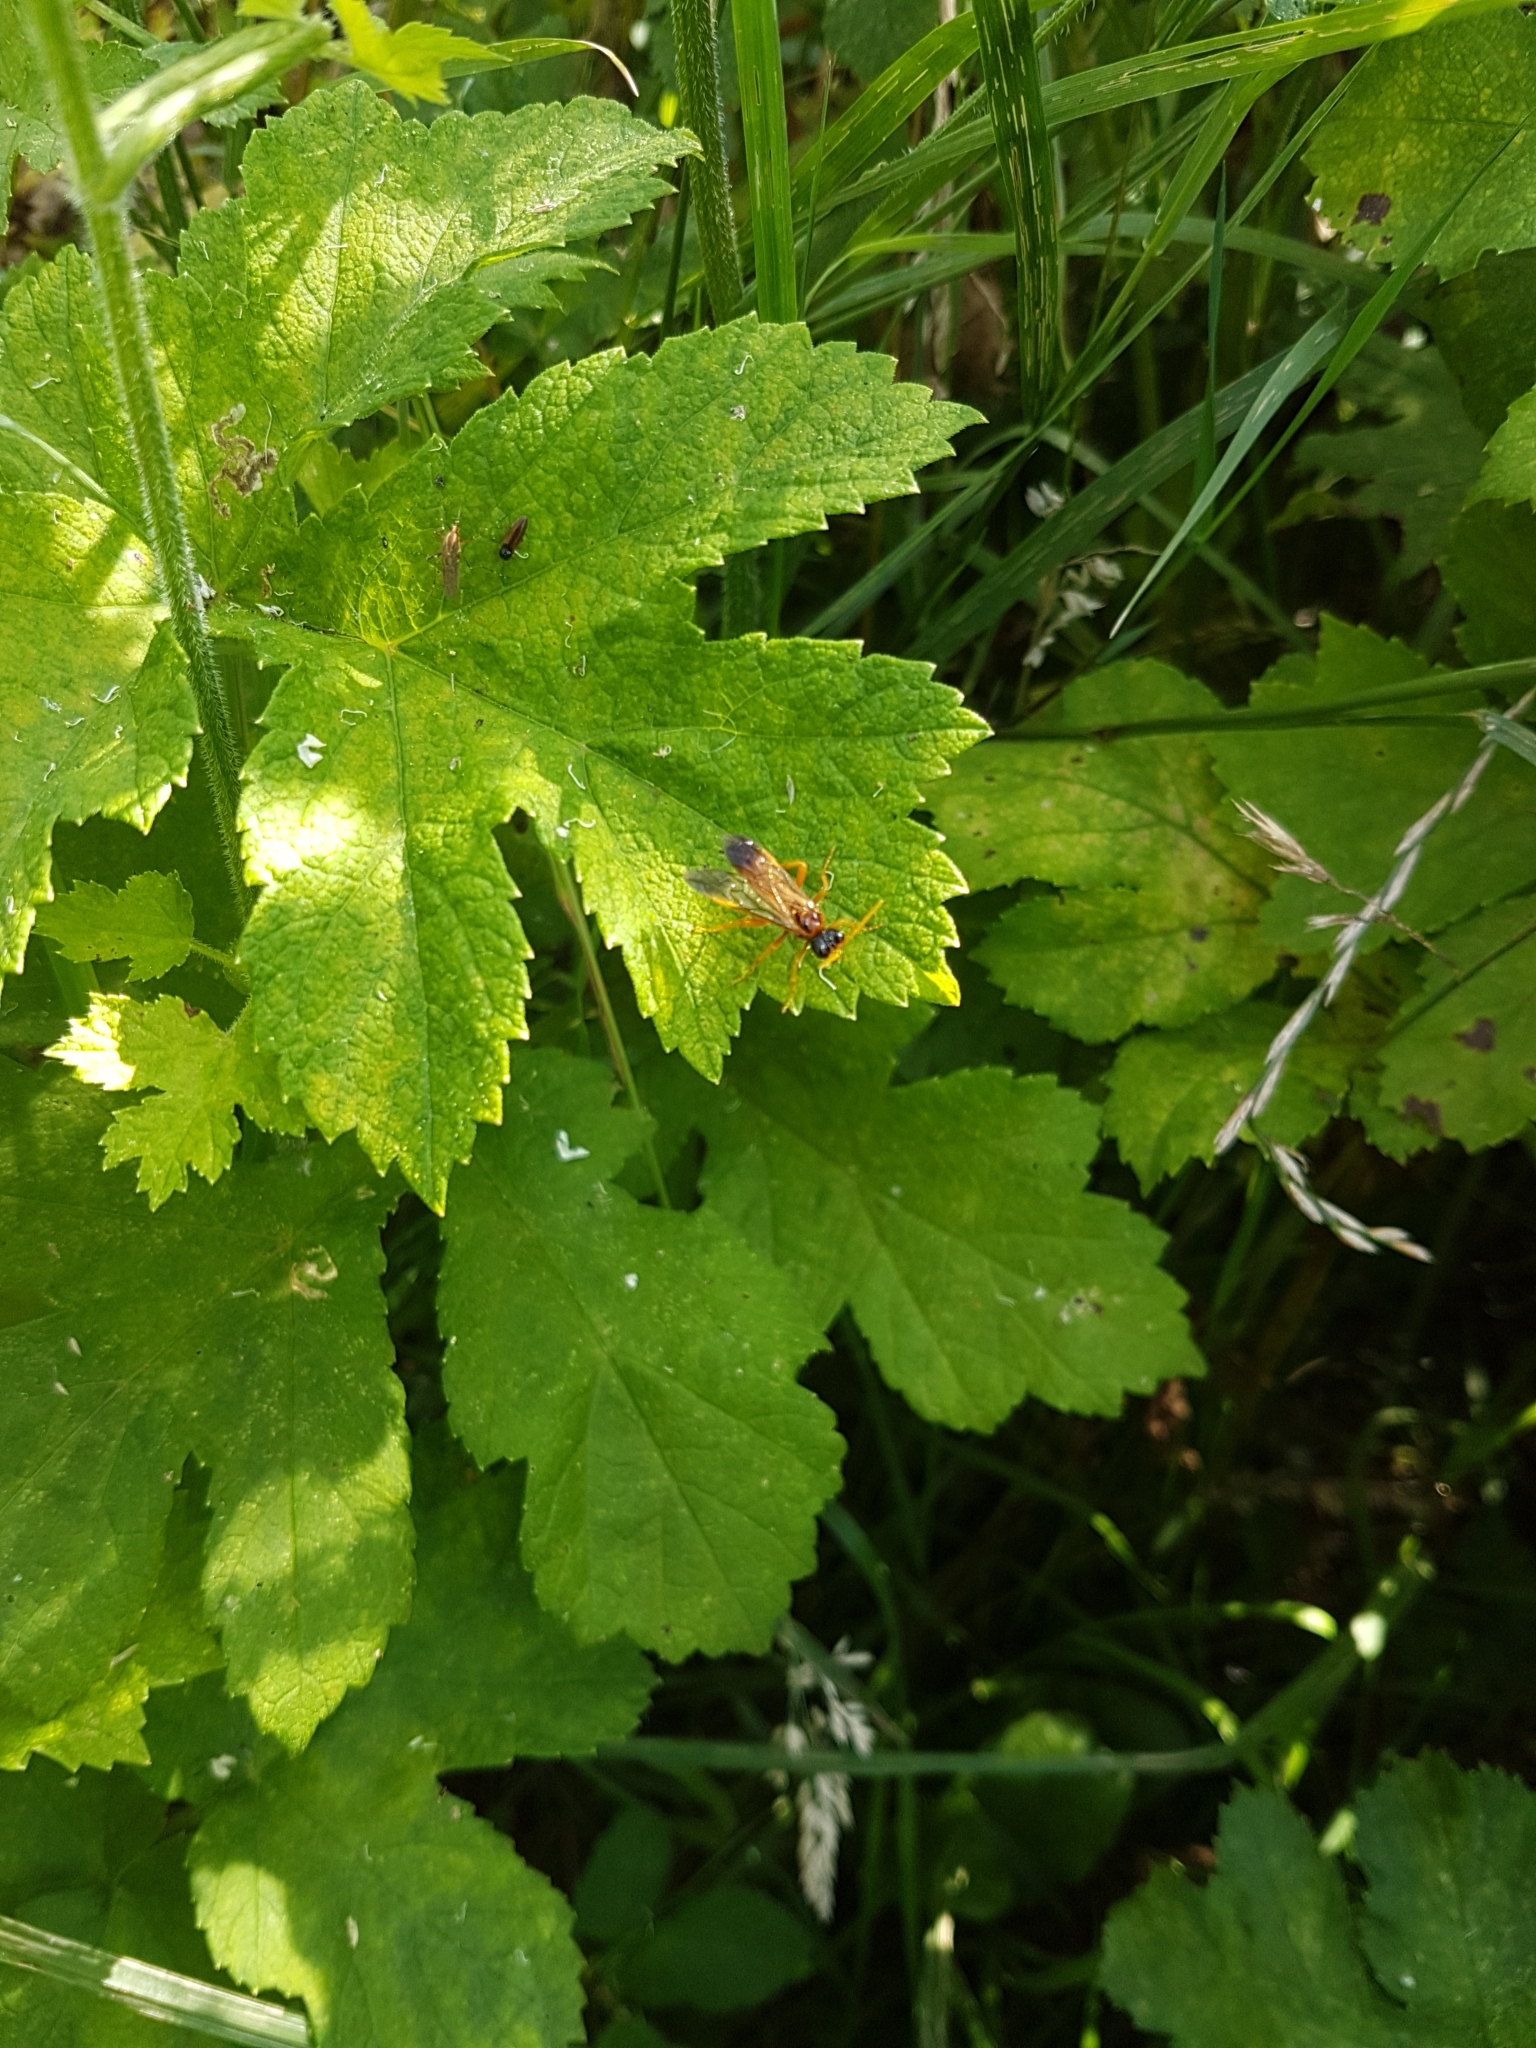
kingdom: Animalia
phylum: Arthropoda
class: Insecta
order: Hymenoptera
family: Tenthredinidae
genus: Tenthredo
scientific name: Tenthredo campestris
